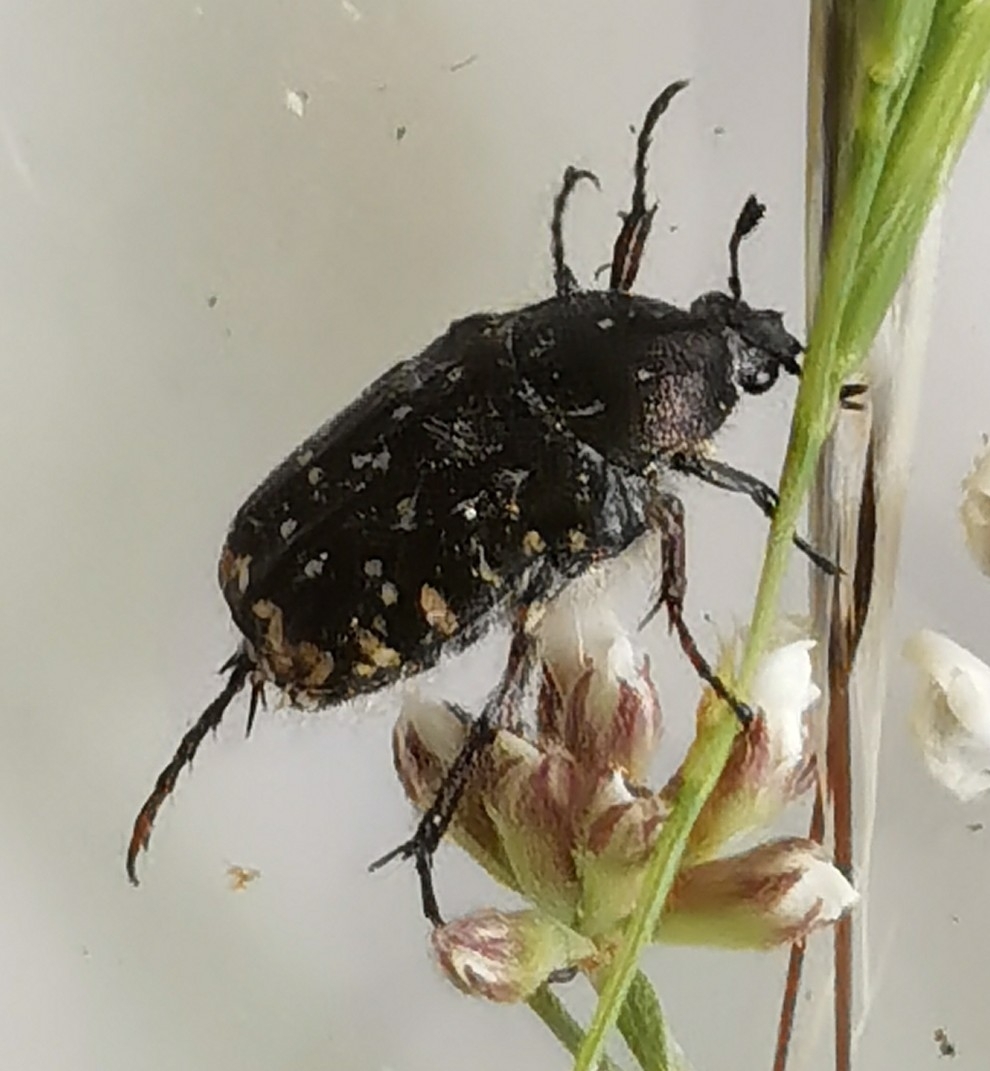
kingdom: Animalia
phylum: Arthropoda
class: Insecta
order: Coleoptera
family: Scarabaeidae
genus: Oxythyrea
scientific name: Oxythyrea funesta
